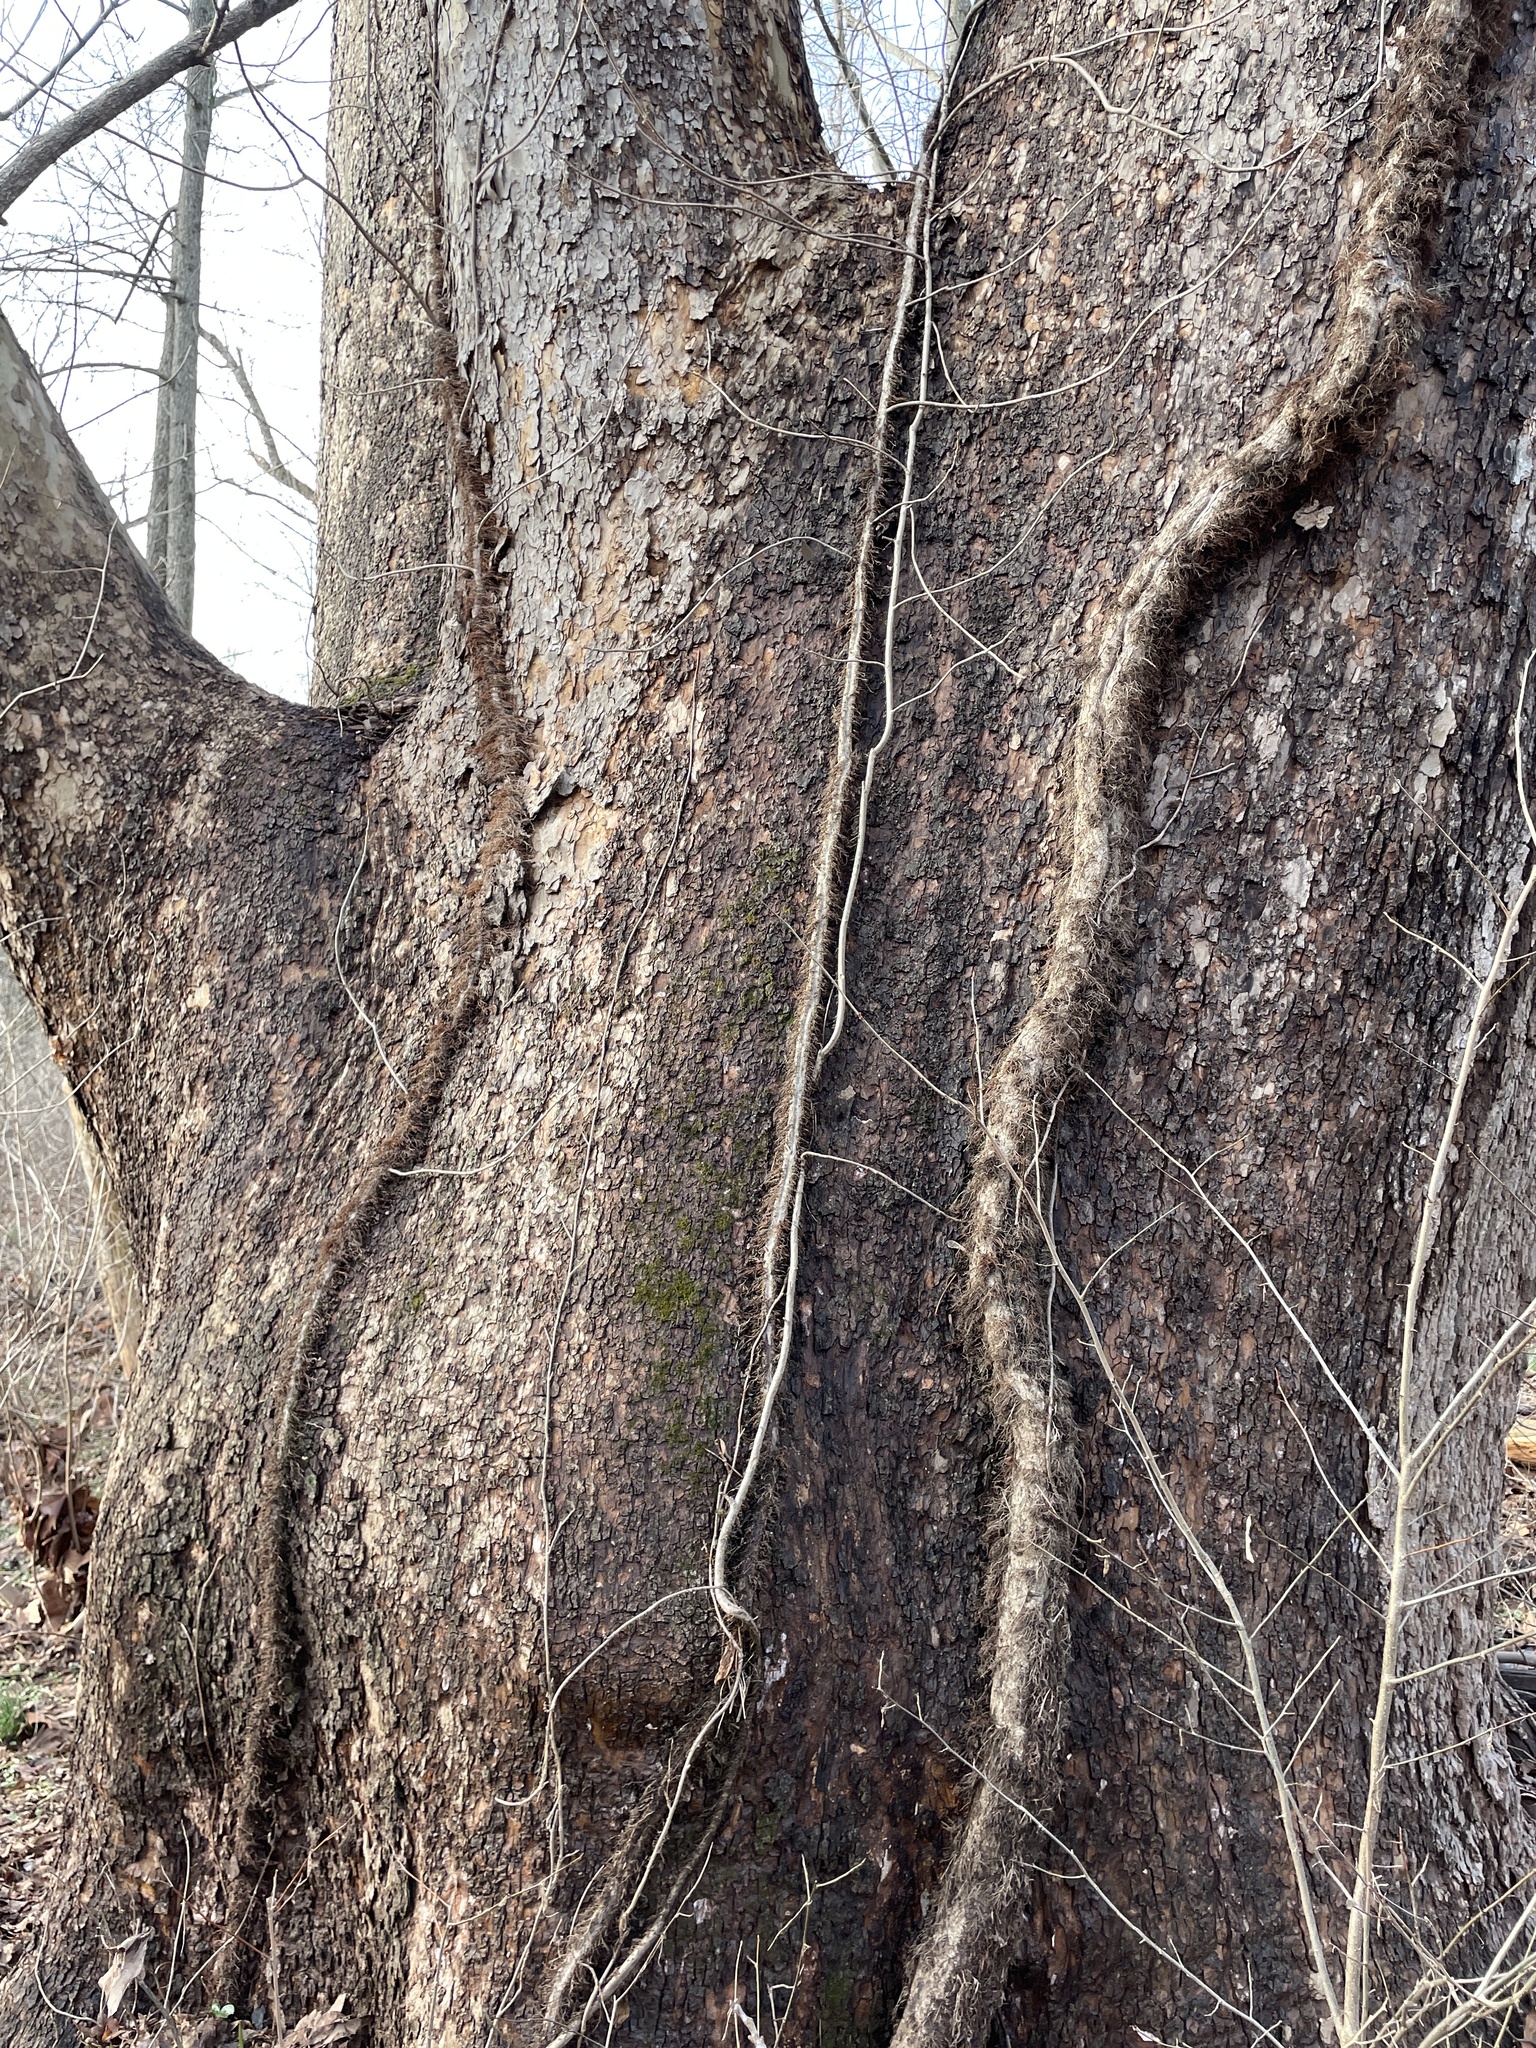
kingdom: Plantae
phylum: Tracheophyta
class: Magnoliopsida
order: Proteales
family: Platanaceae
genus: Platanus
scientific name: Platanus occidentalis
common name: American sycamore
